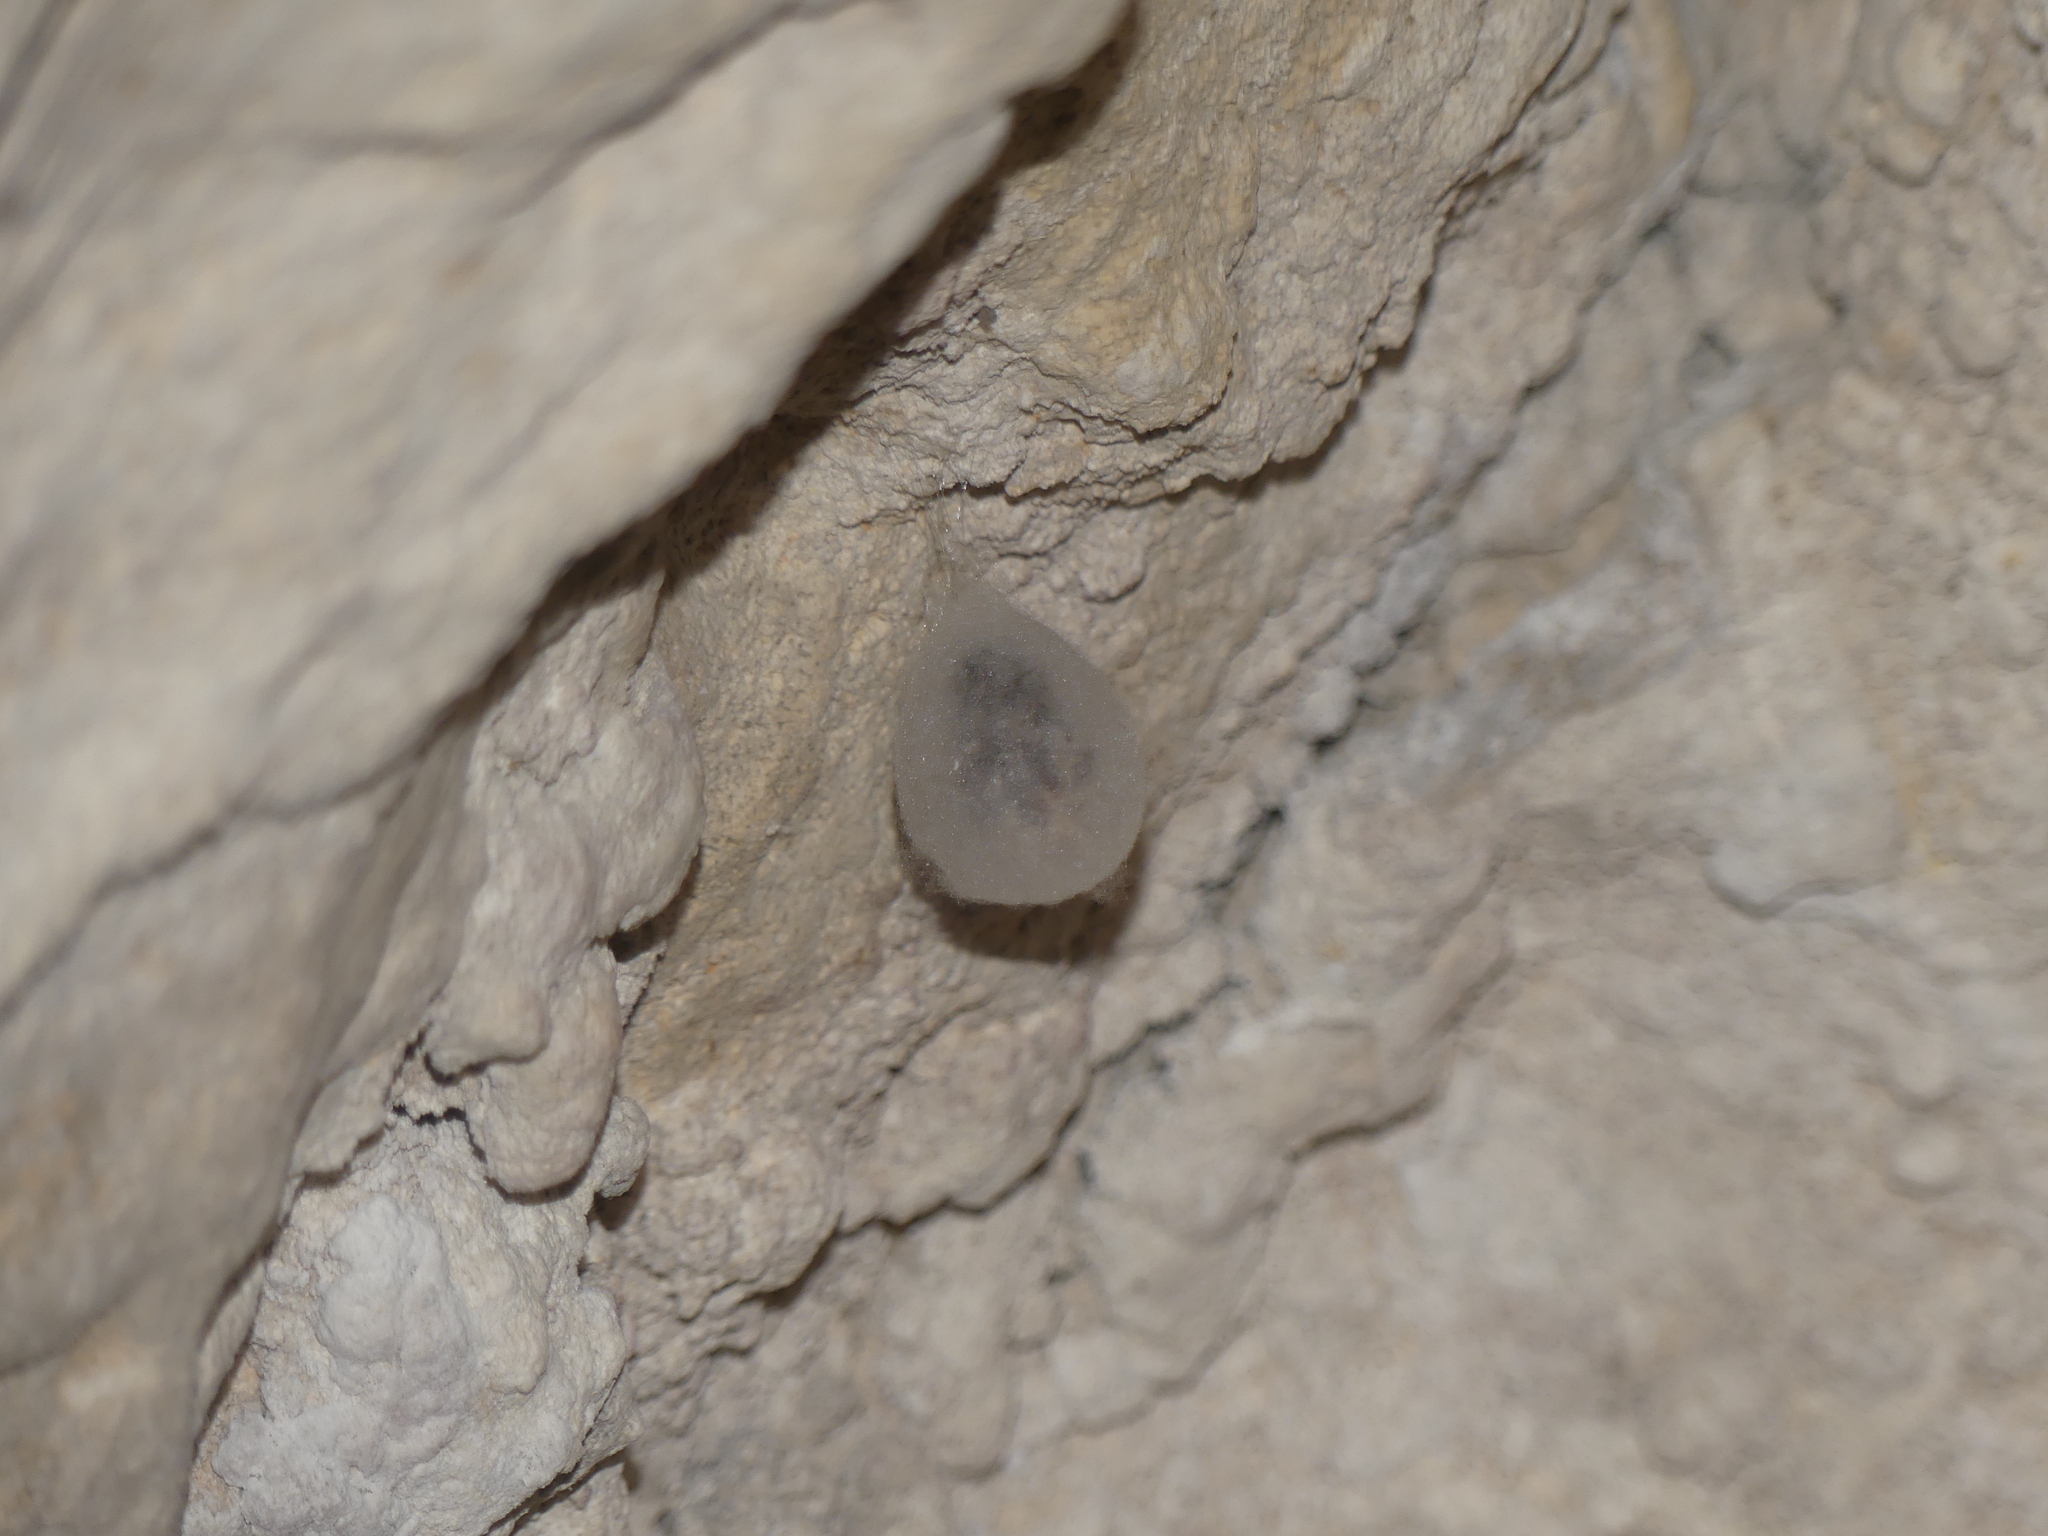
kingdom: Animalia
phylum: Arthropoda
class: Arachnida
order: Araneae
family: Tetragnathidae
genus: Meta
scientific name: Meta menardi
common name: Cave spider
